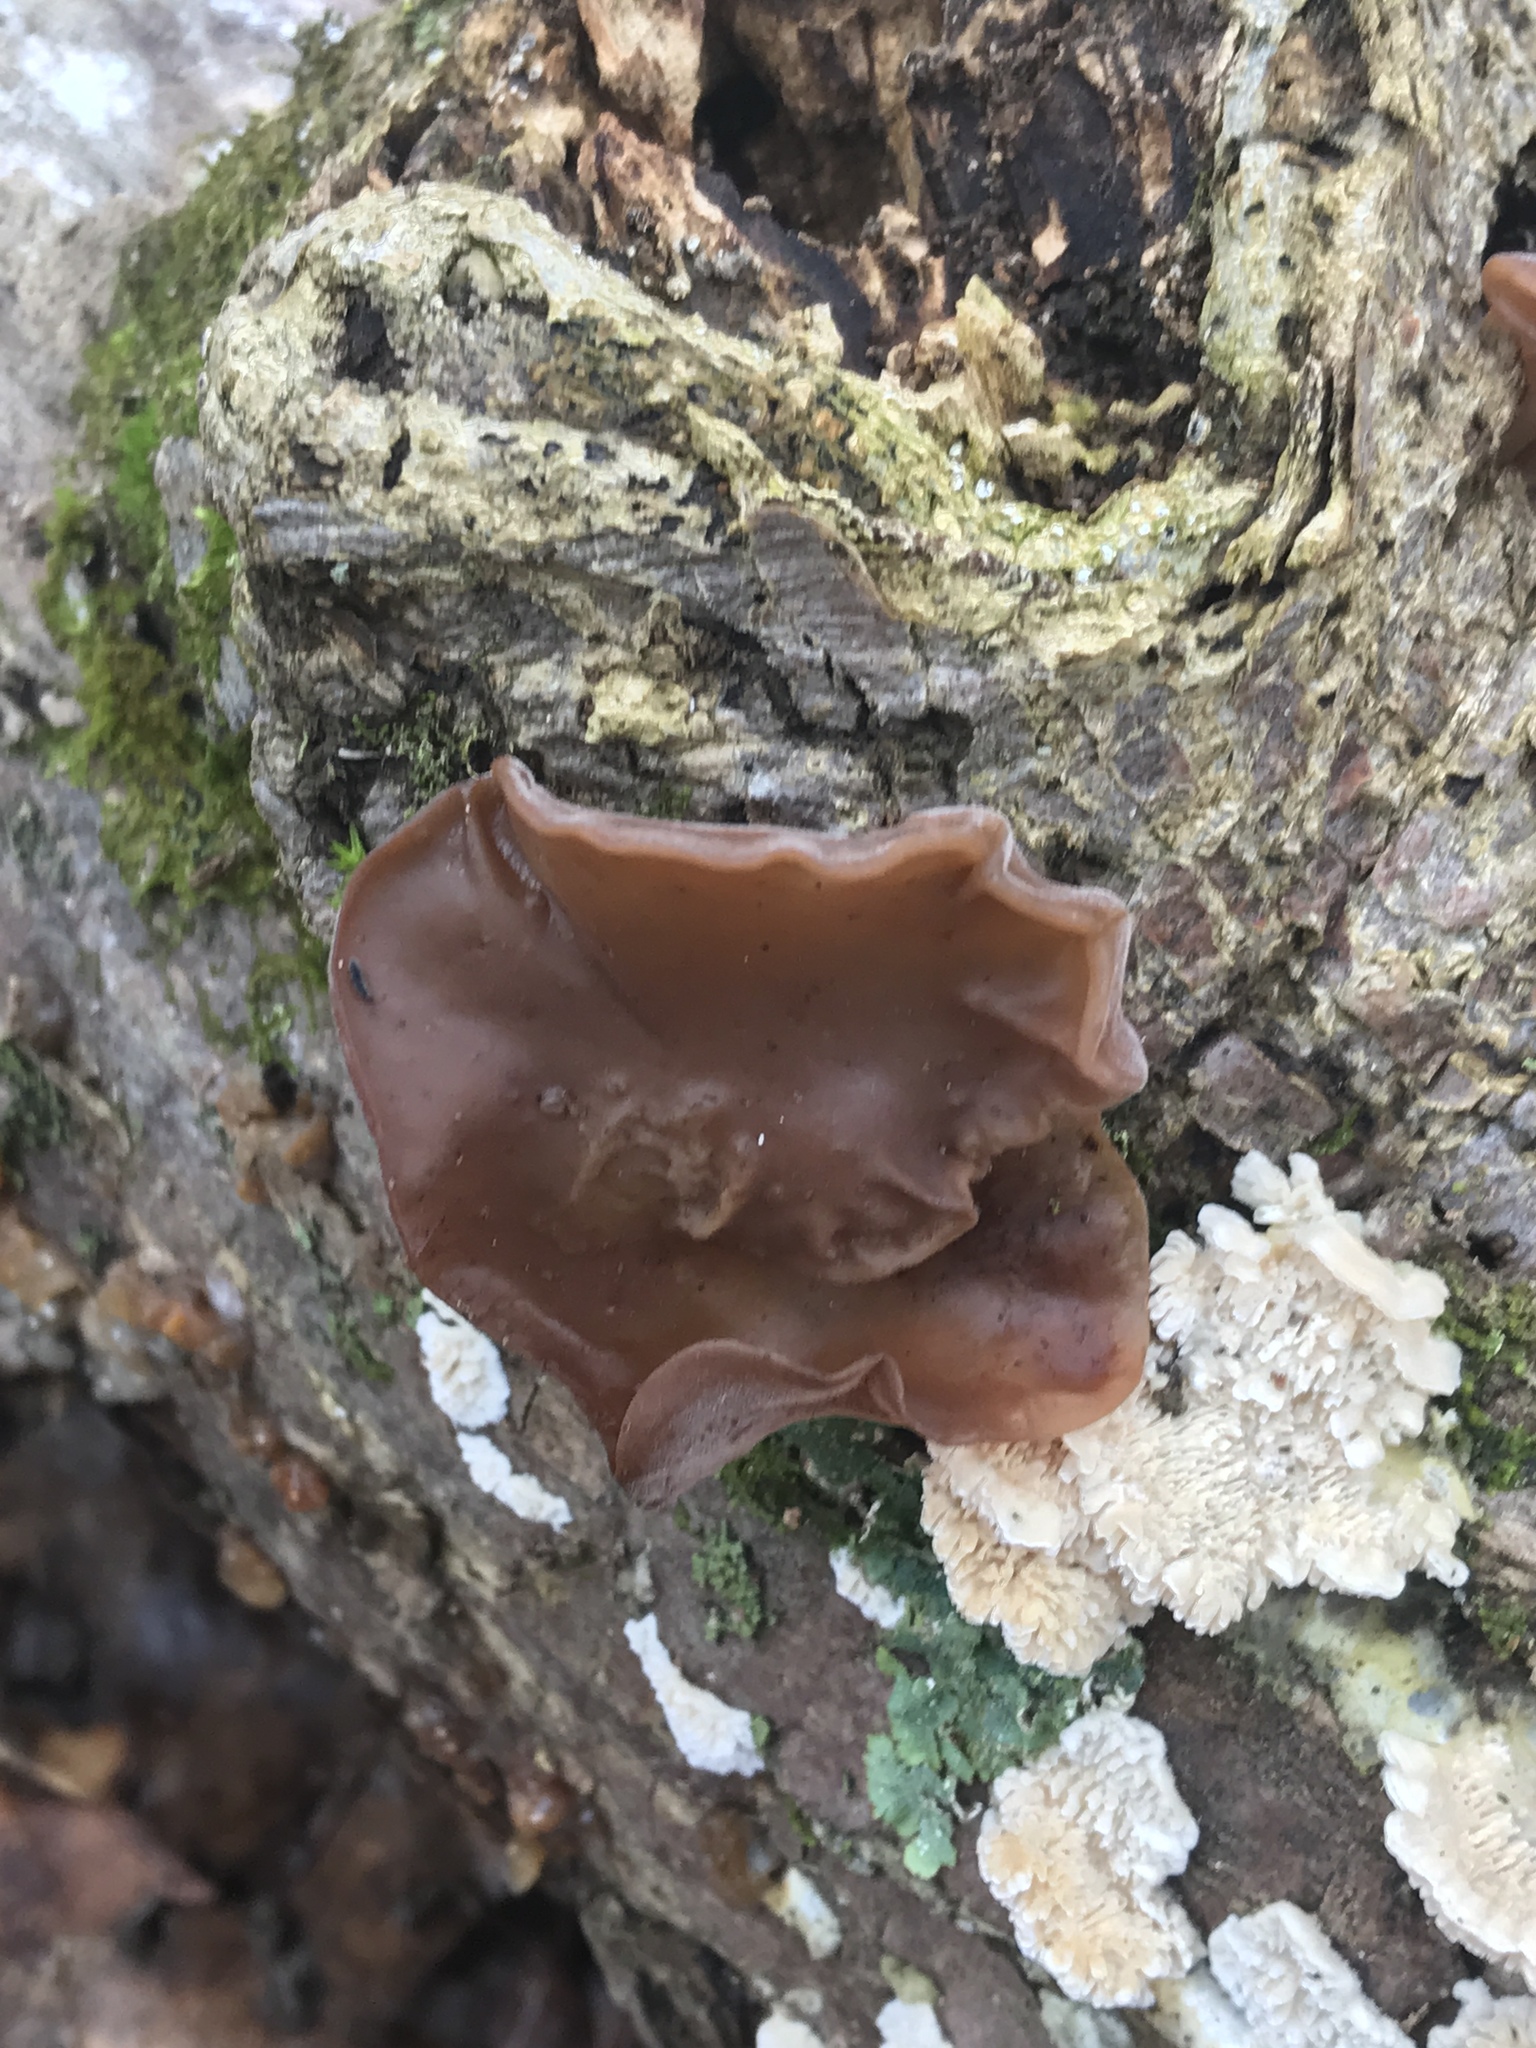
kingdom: Fungi
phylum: Basidiomycota
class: Agaricomycetes
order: Auriculariales
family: Auriculariaceae
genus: Auricularia
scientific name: Auricularia angiospermarum
